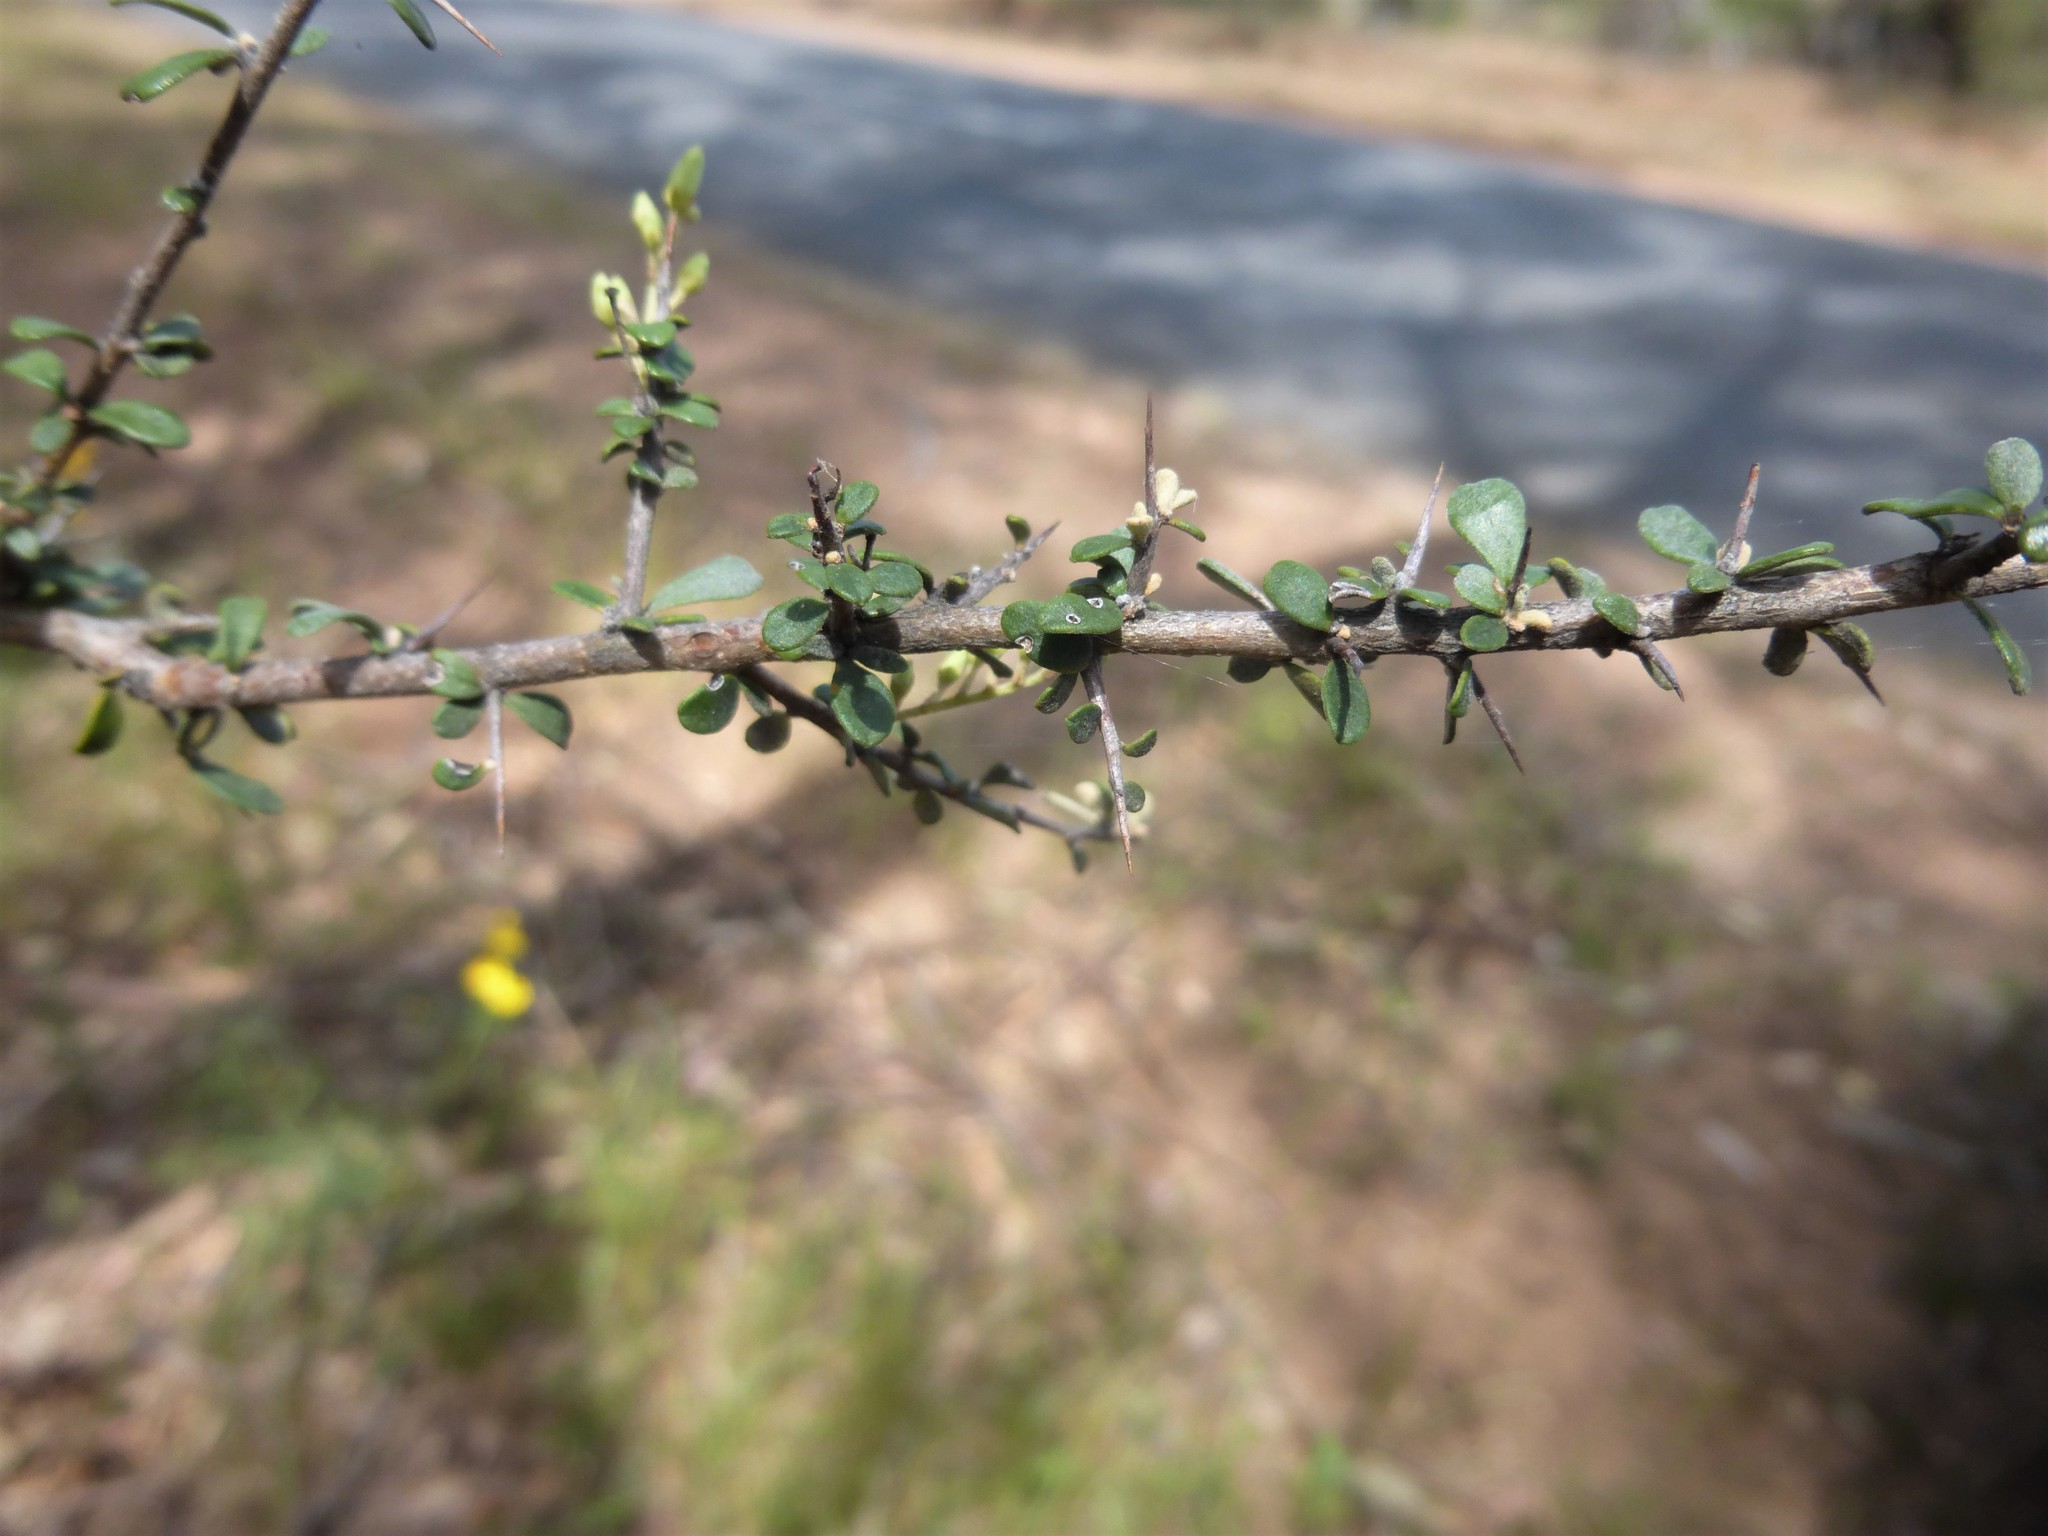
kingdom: Plantae
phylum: Tracheophyta
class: Magnoliopsida
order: Apiales
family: Pittosporaceae
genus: Bursaria
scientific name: Bursaria spinosa
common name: Australian blackthorn
